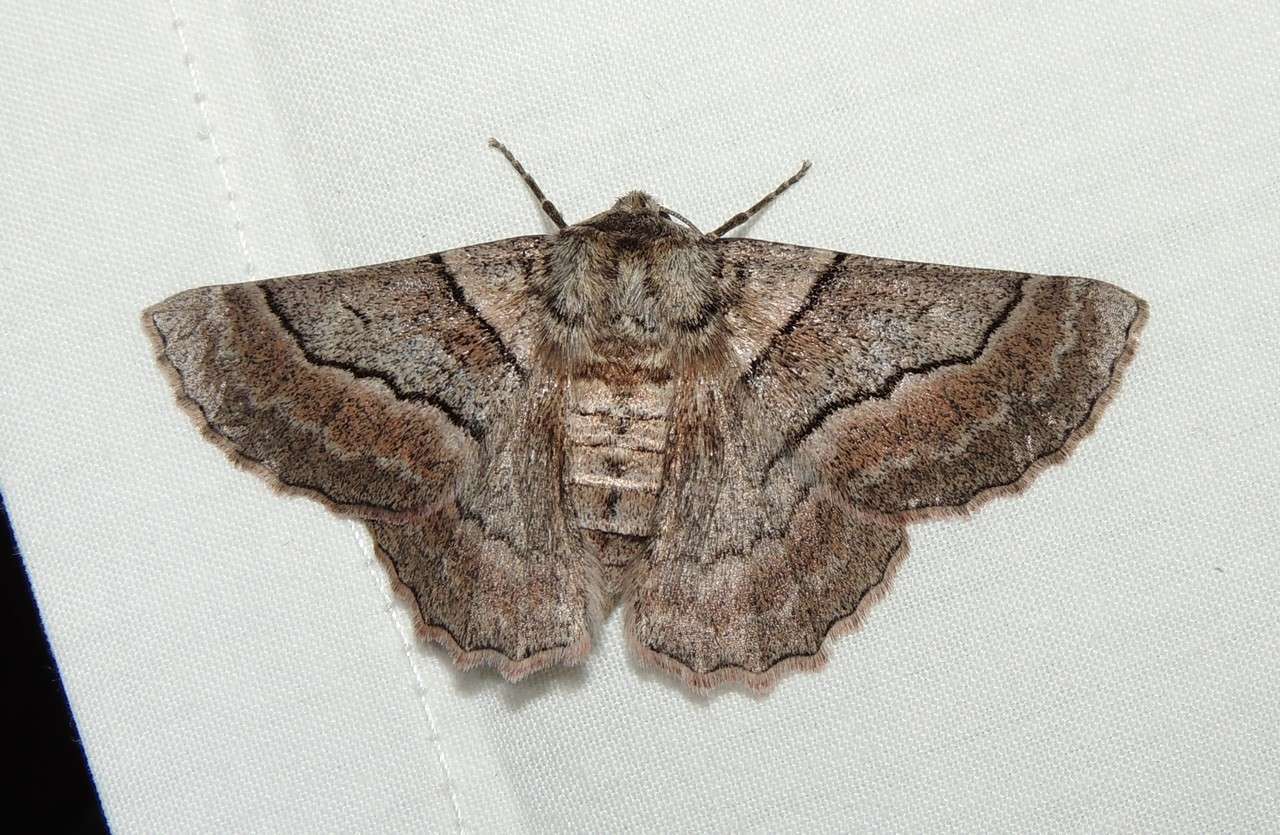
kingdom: Animalia
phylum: Arthropoda
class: Insecta
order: Lepidoptera
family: Geometridae
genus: Hypobapta
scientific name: Hypobapta tachyhalotaria
